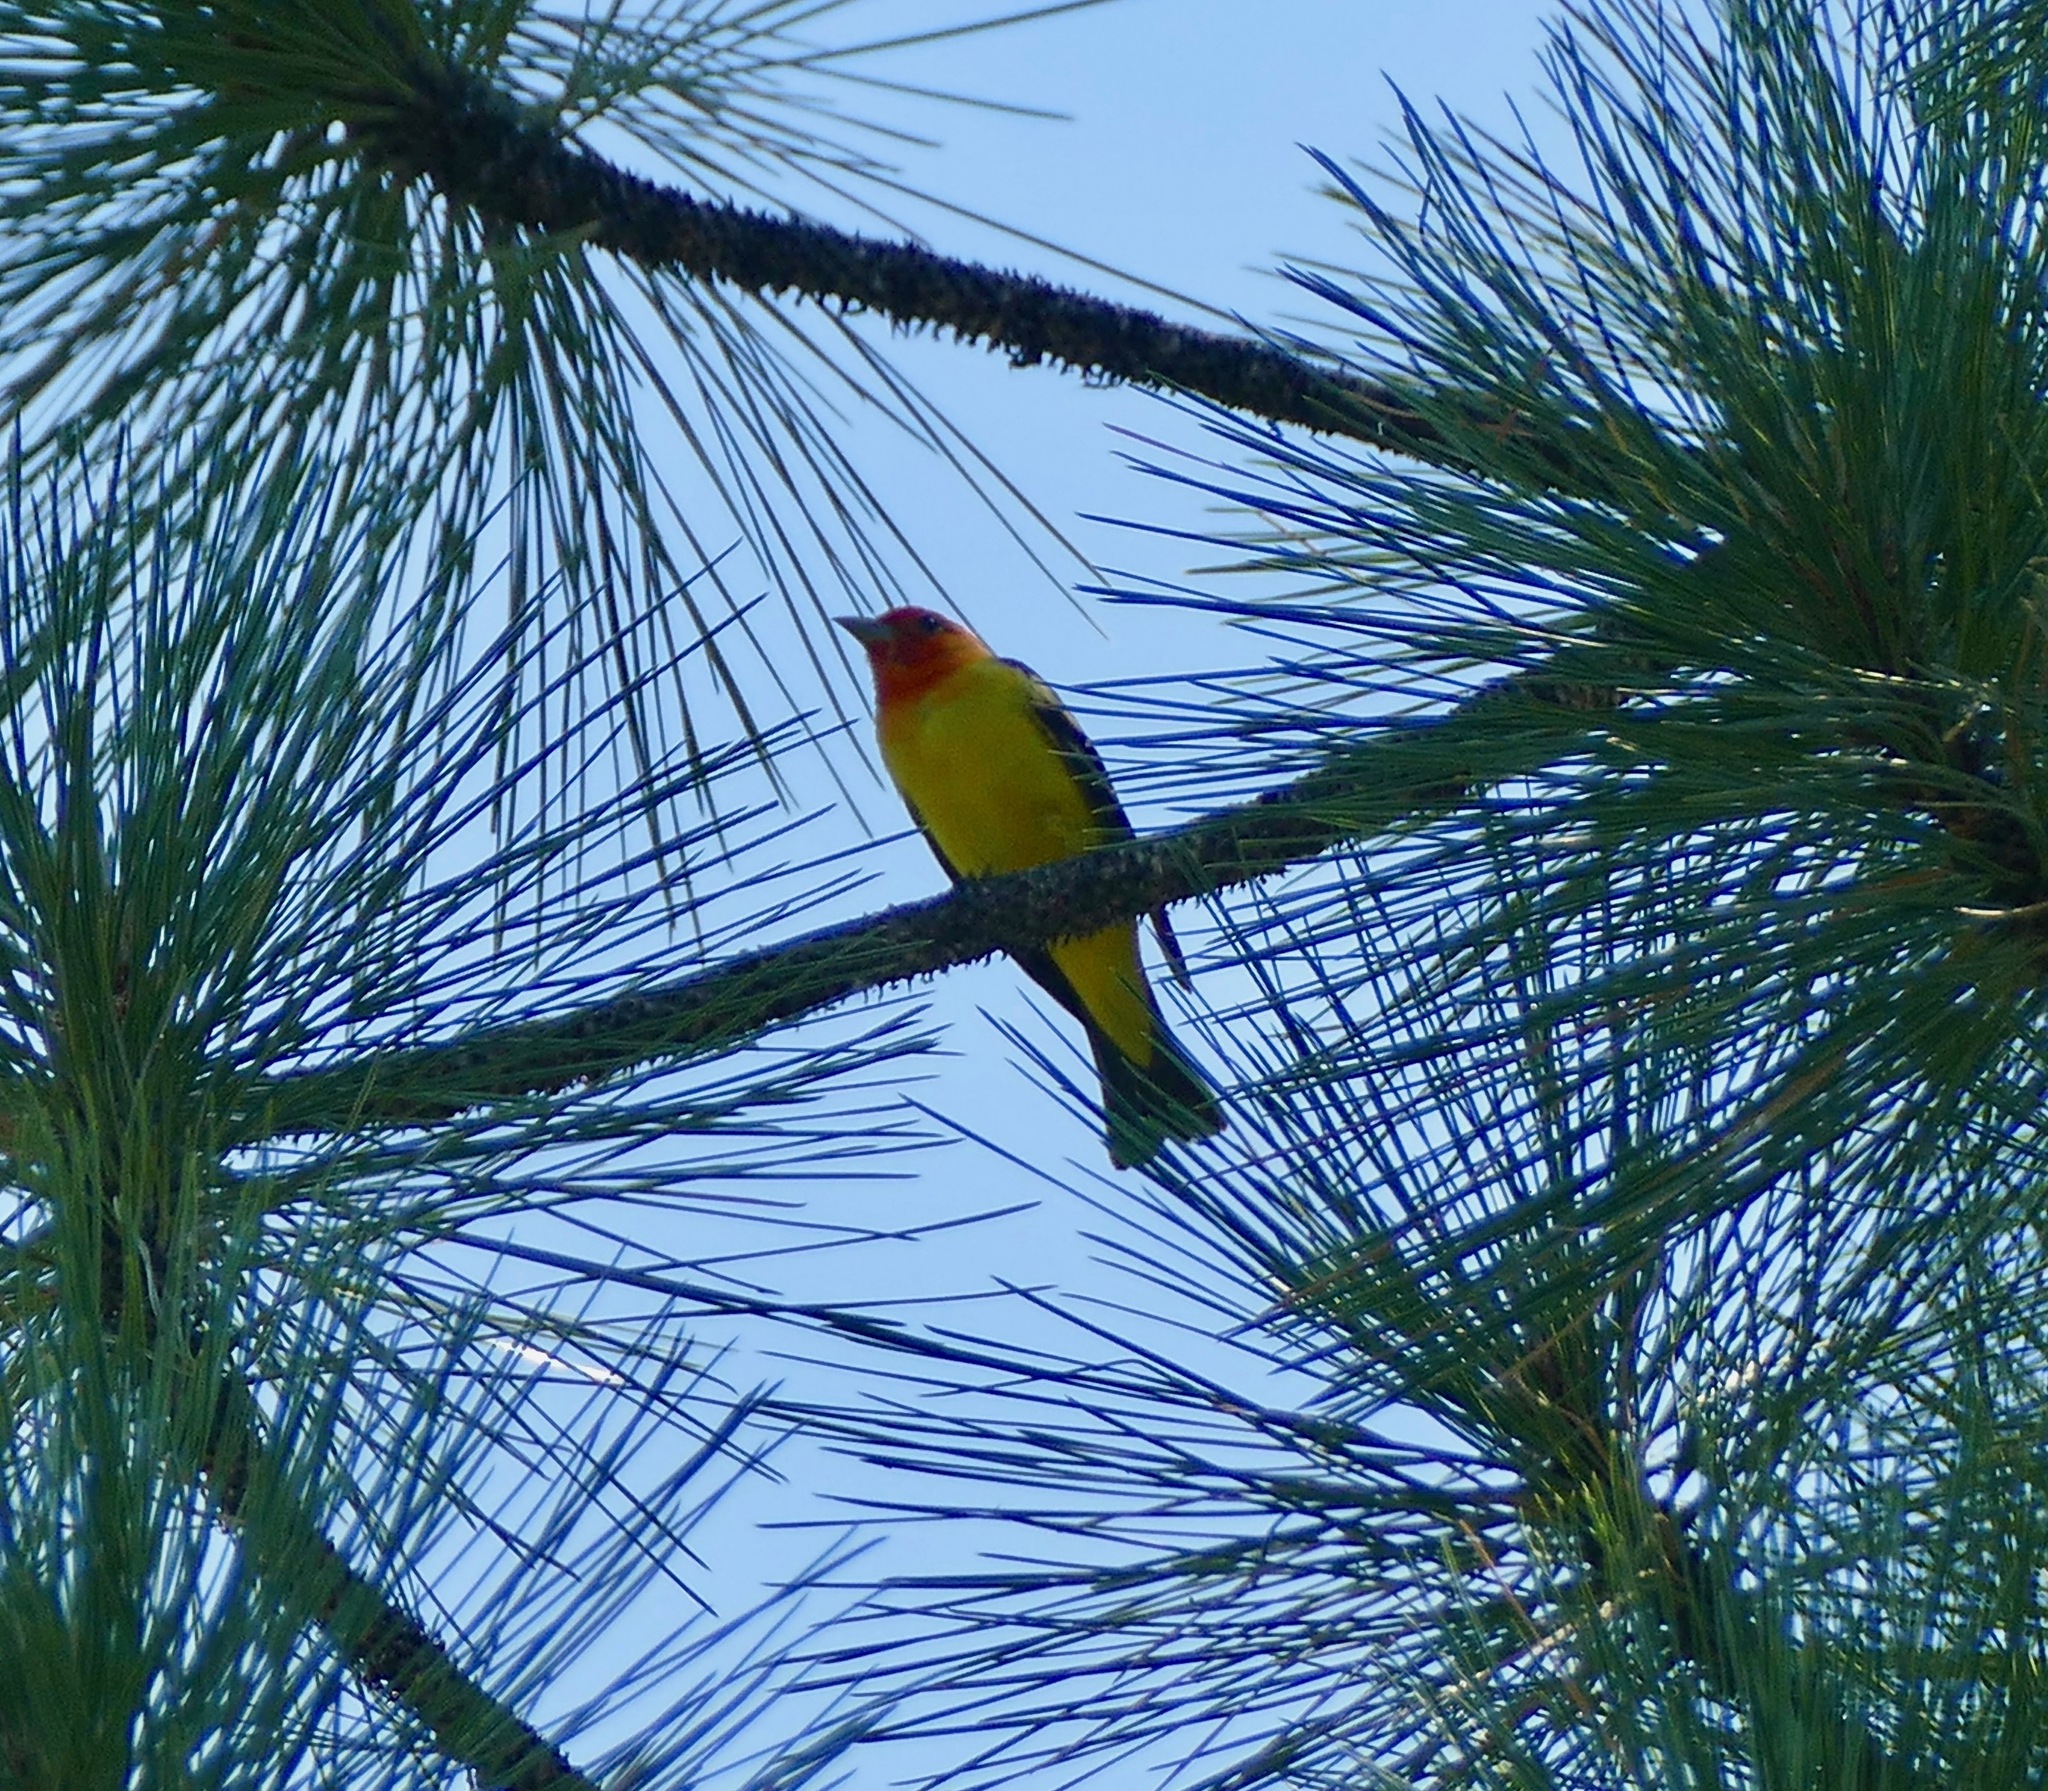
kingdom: Animalia
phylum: Chordata
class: Aves
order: Passeriformes
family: Cardinalidae
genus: Piranga
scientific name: Piranga ludoviciana
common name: Western tanager
